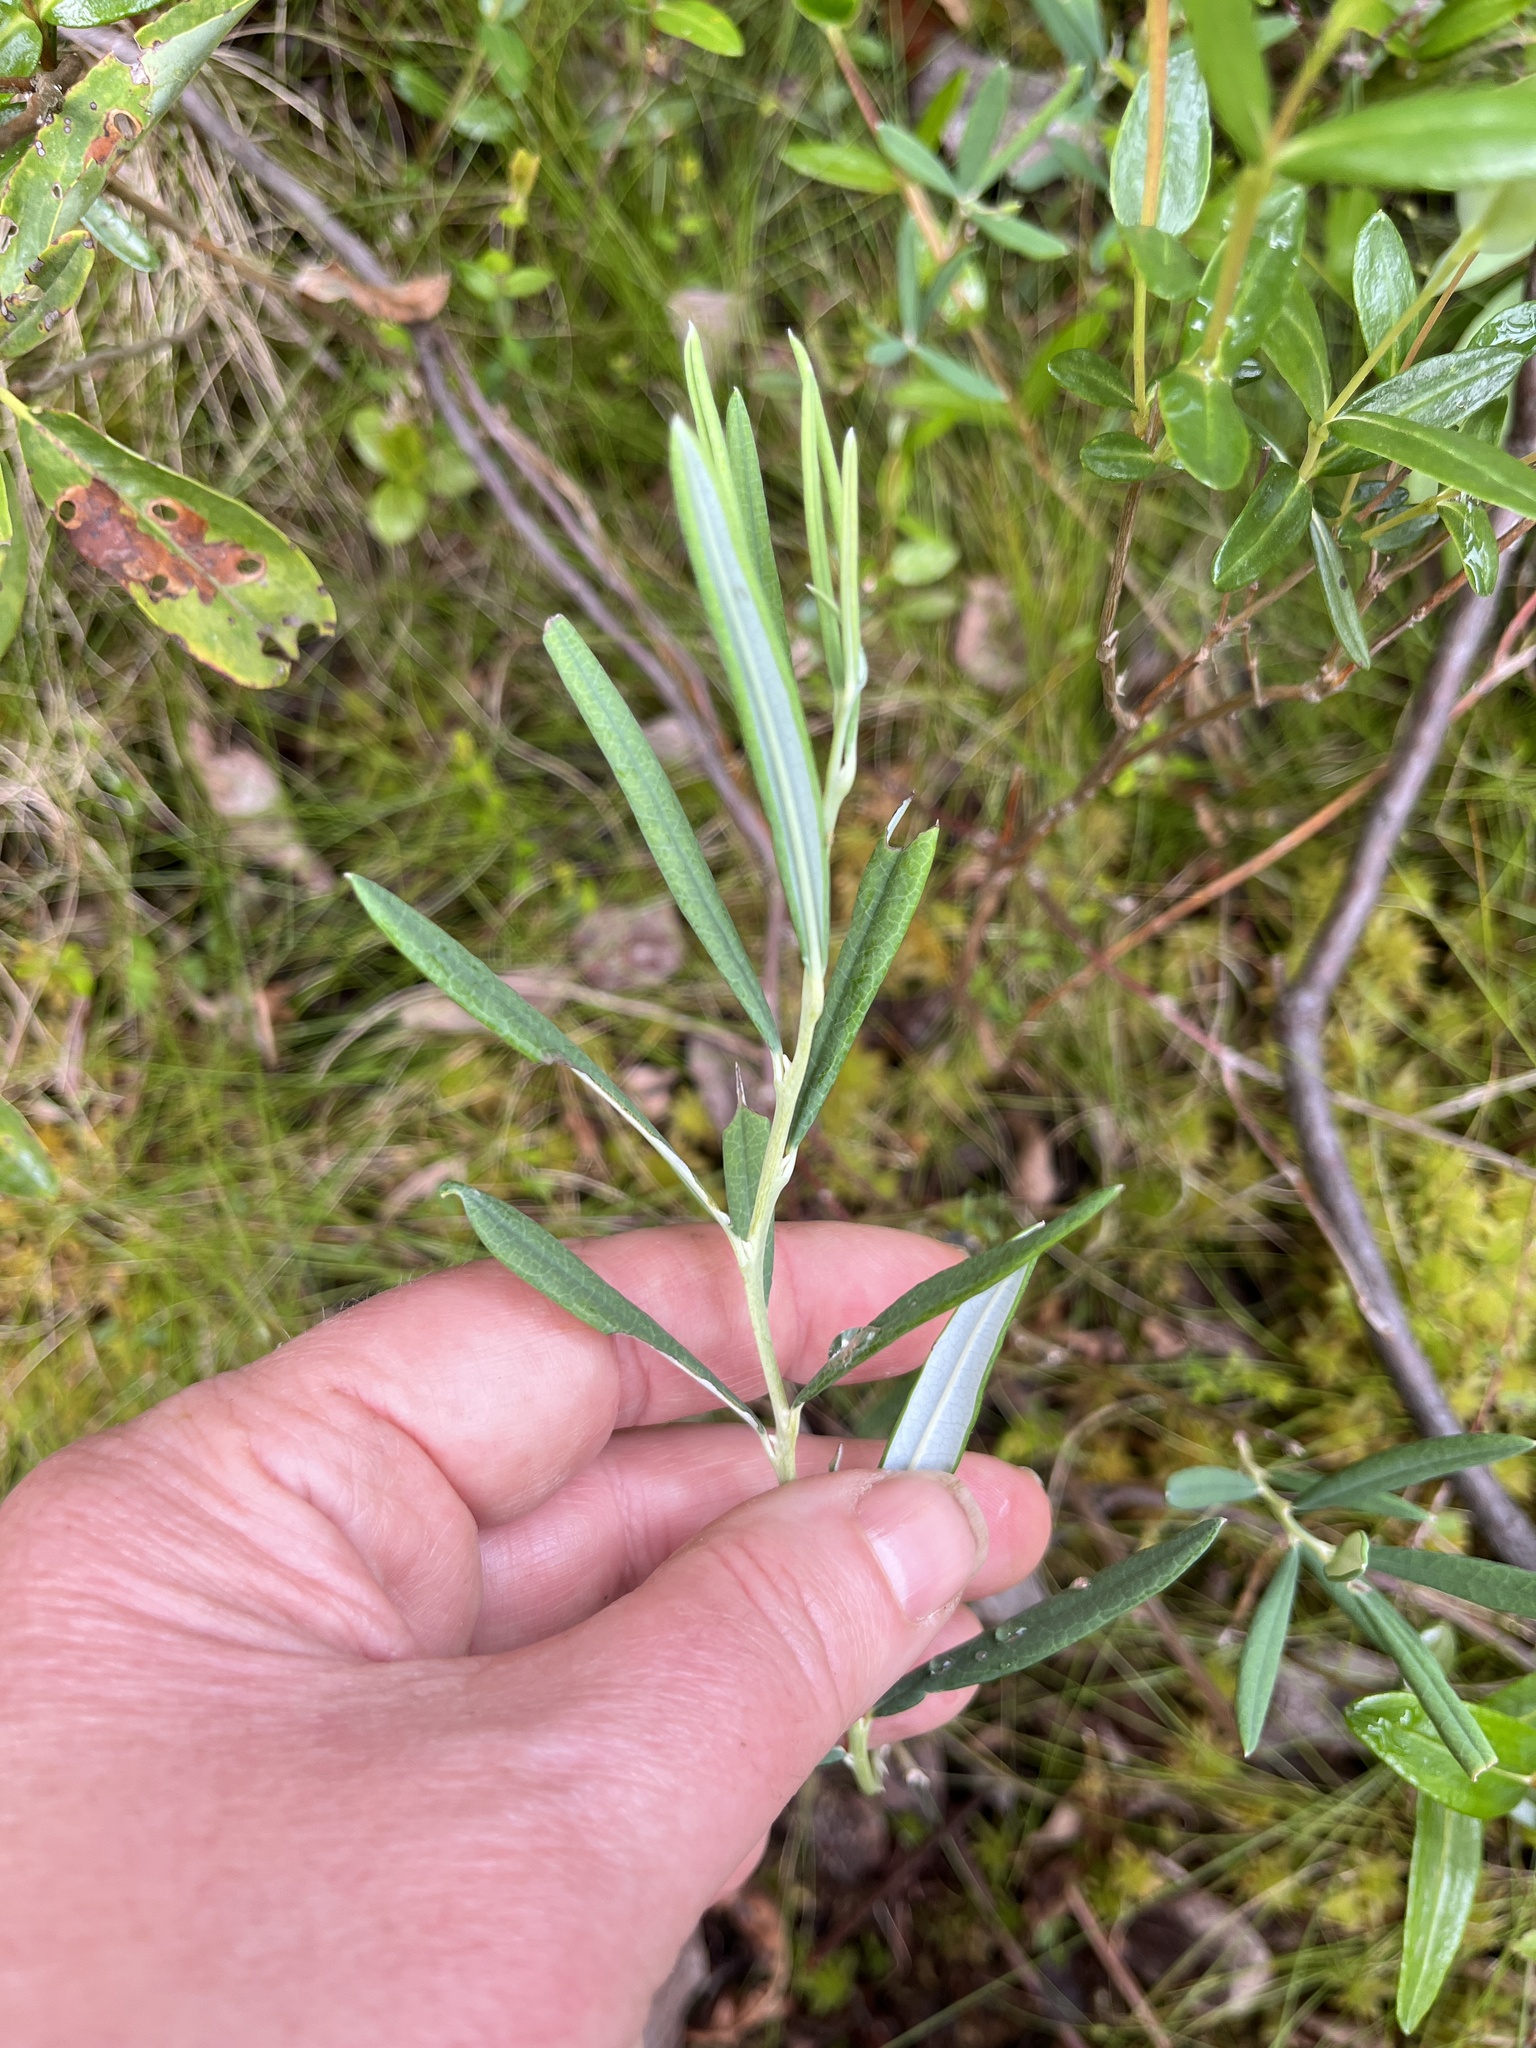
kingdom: Plantae
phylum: Tracheophyta
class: Magnoliopsida
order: Ericales
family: Ericaceae
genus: Andromeda
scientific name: Andromeda polifolia
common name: Bog-rosemary
